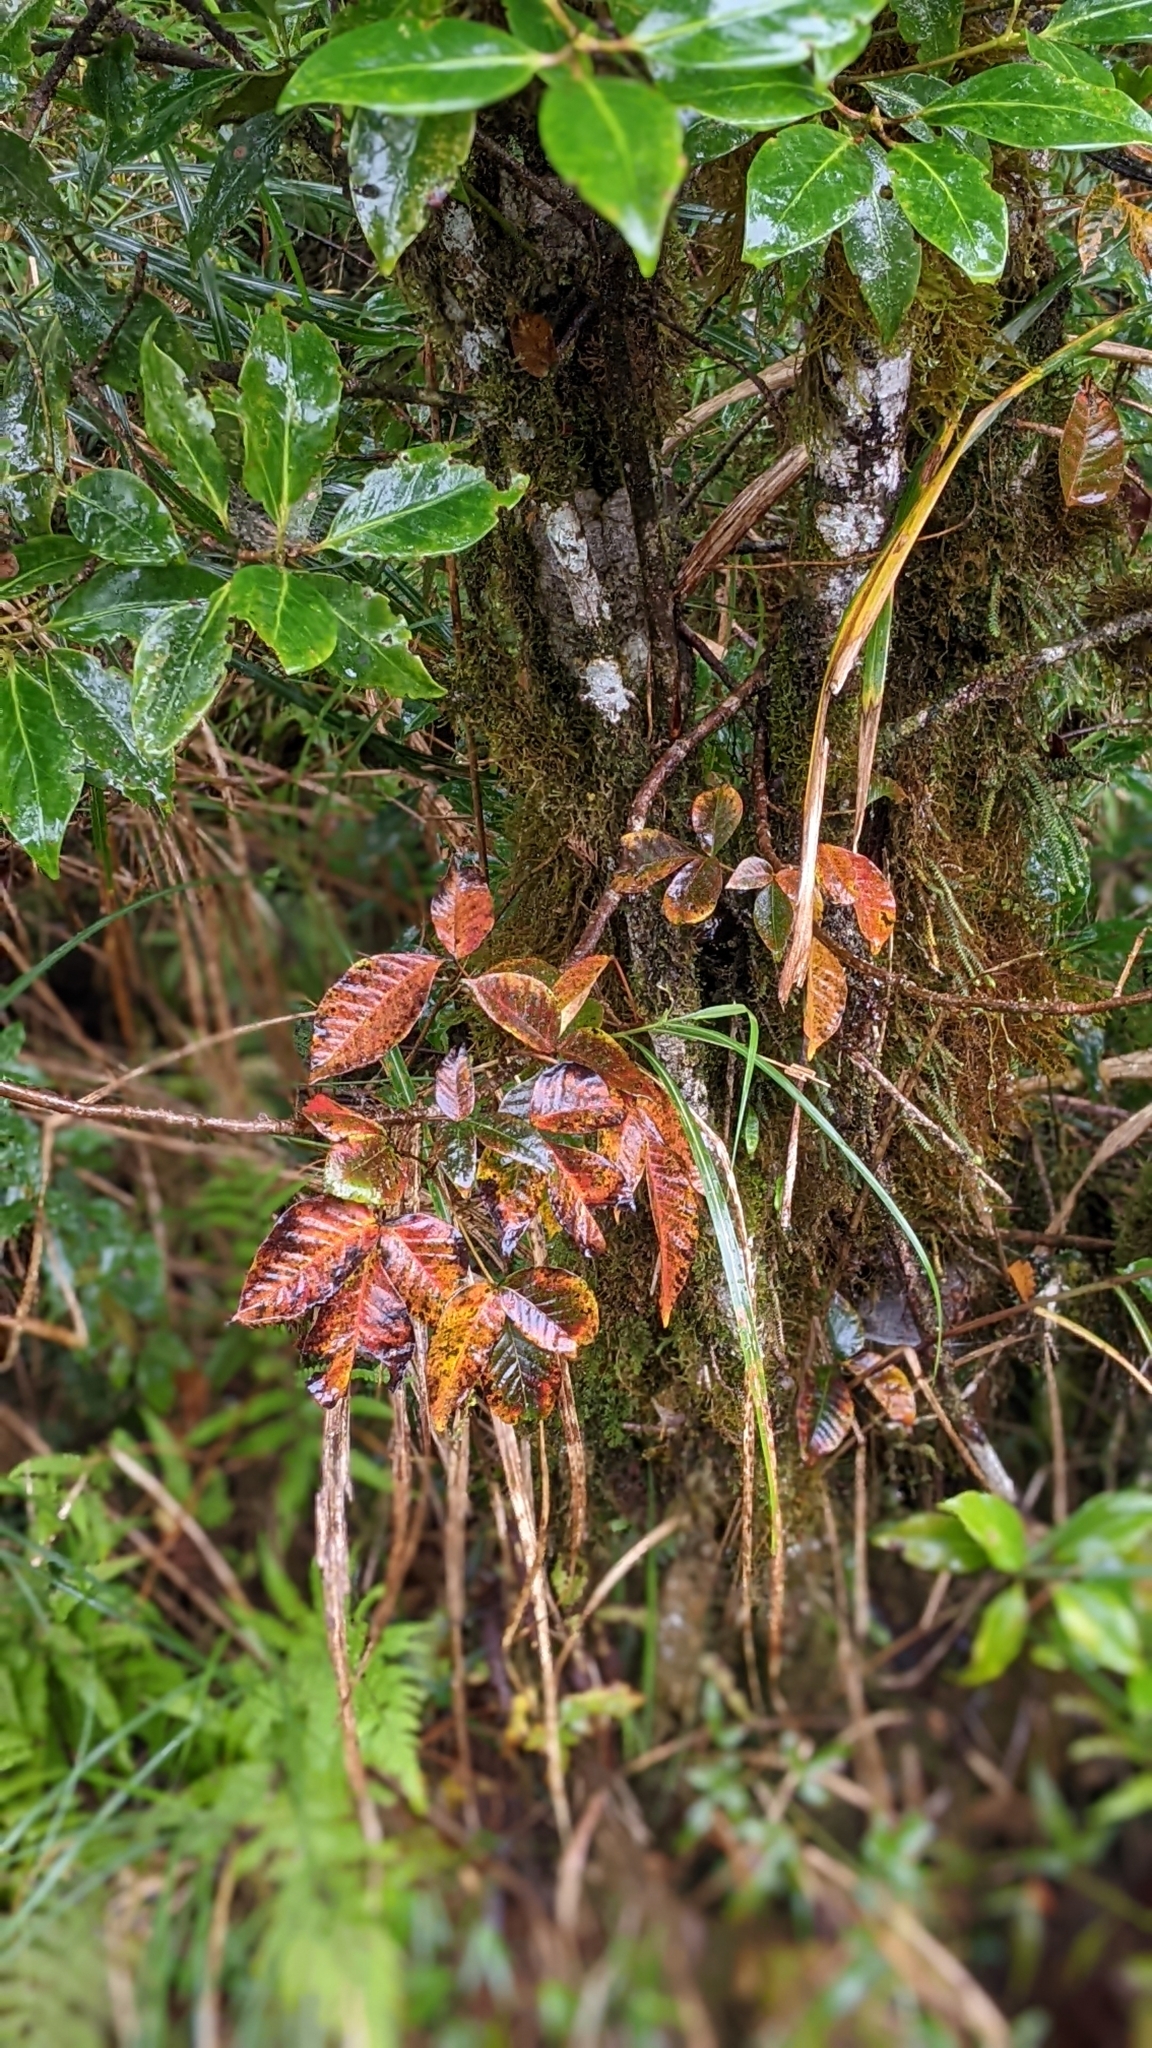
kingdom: Plantae
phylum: Tracheophyta
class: Magnoliopsida
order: Sapindales
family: Anacardiaceae
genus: Toxicodendron
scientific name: Toxicodendron orientale
